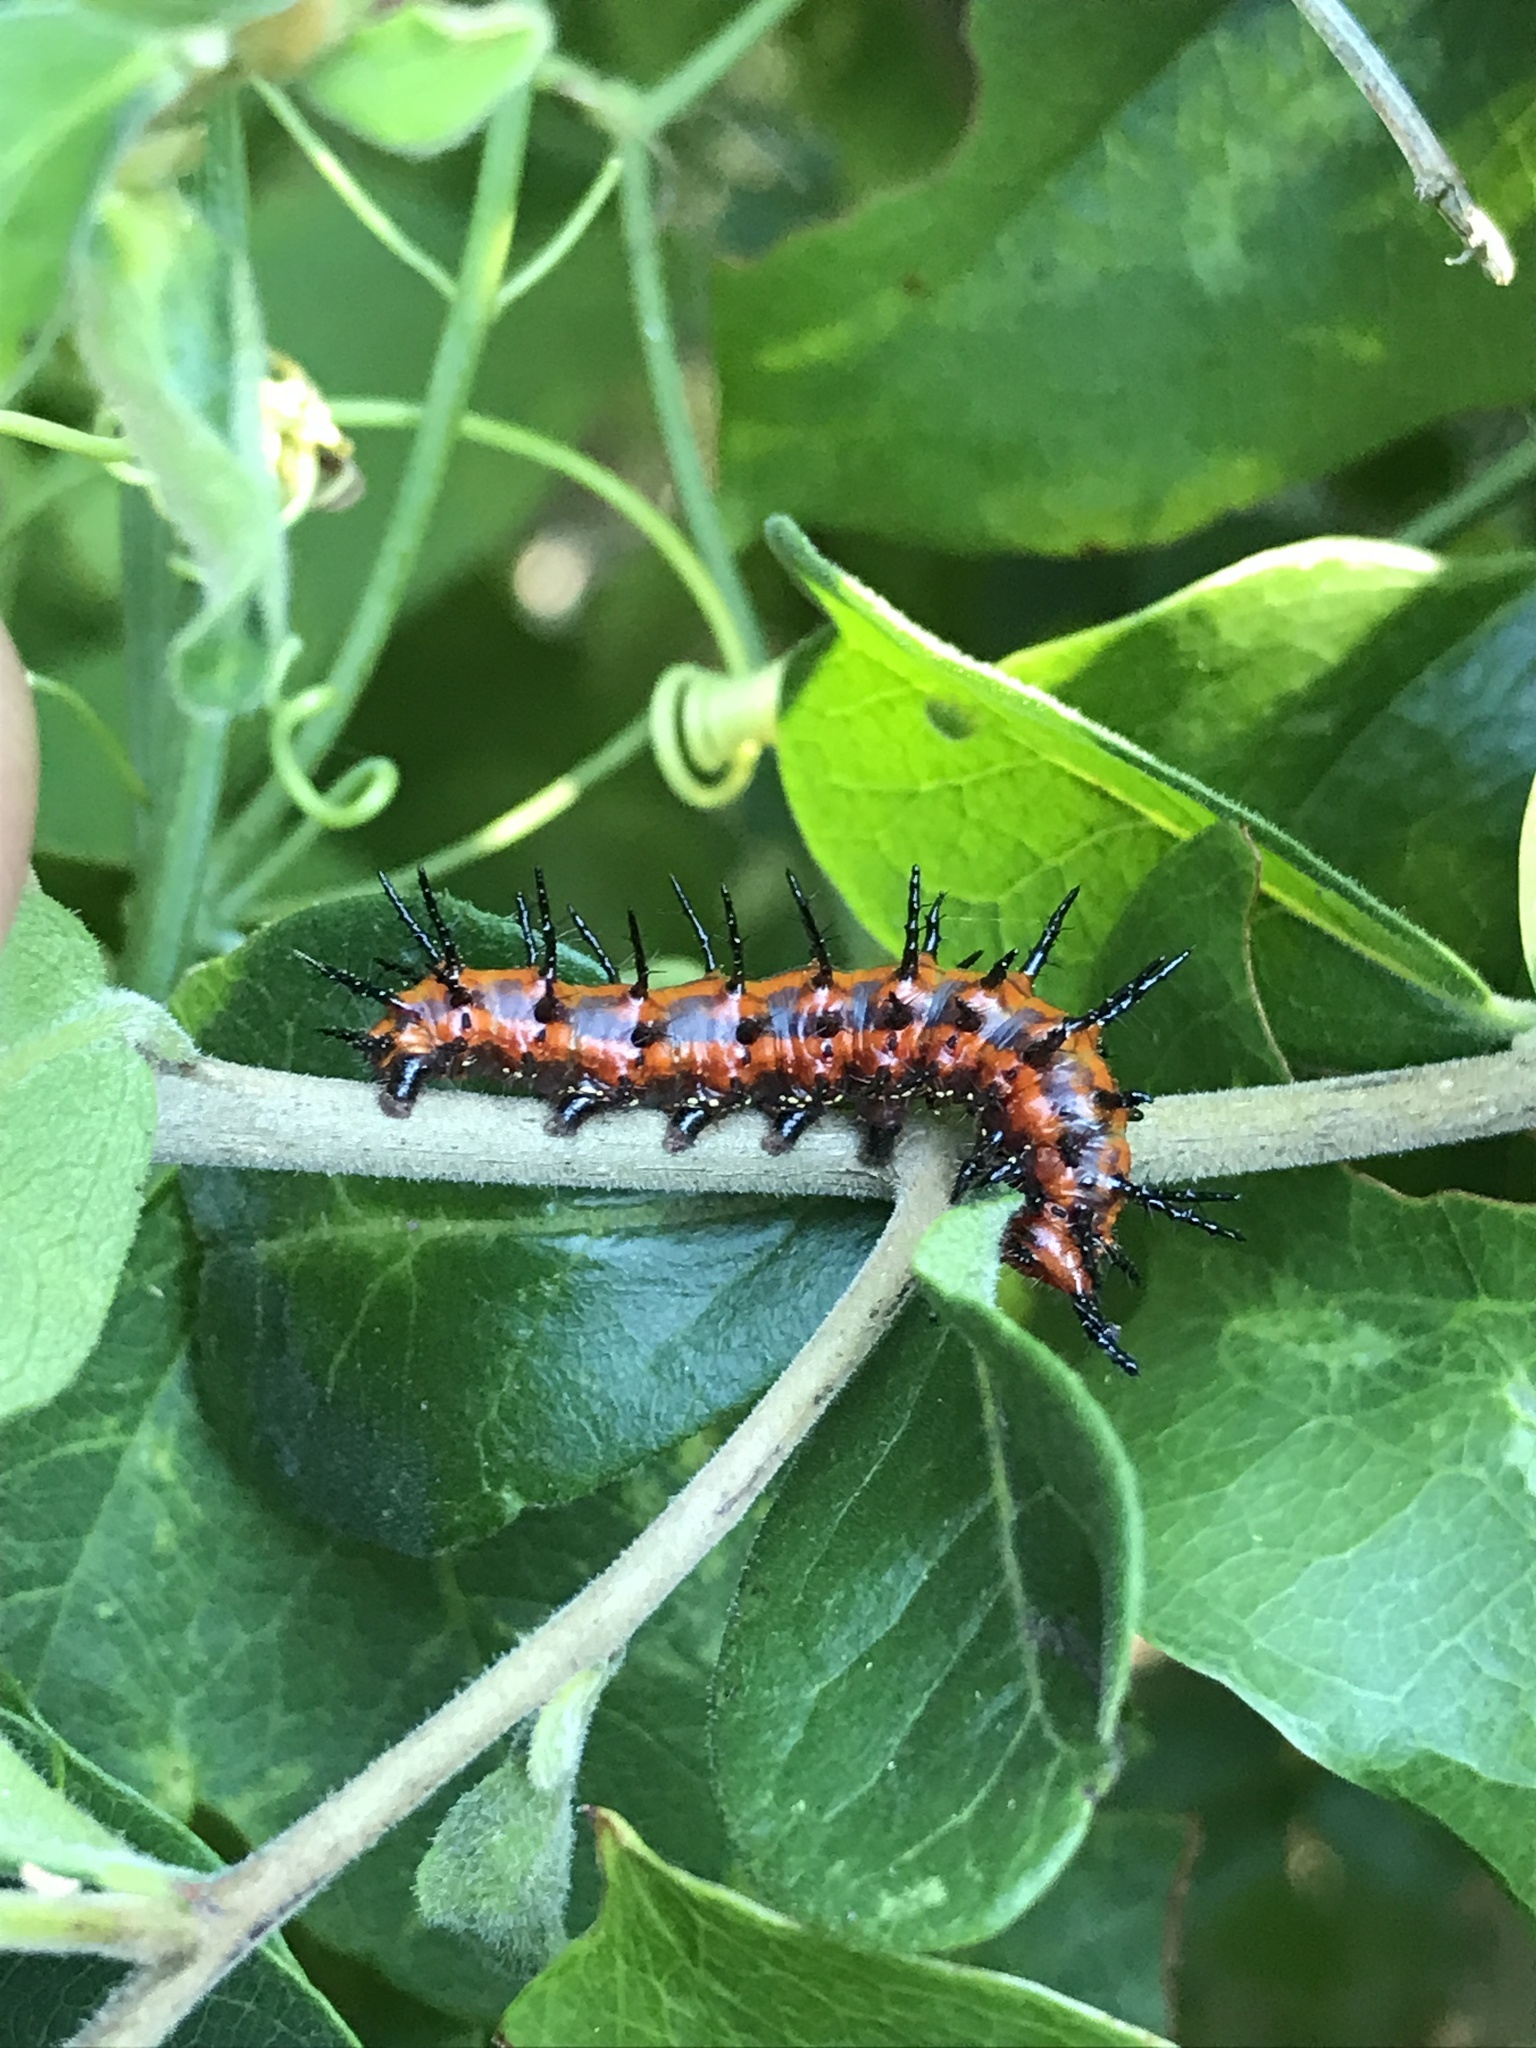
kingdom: Animalia
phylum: Arthropoda
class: Insecta
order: Lepidoptera
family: Nymphalidae
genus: Dione
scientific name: Dione vanillae
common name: Gulf fritillary
